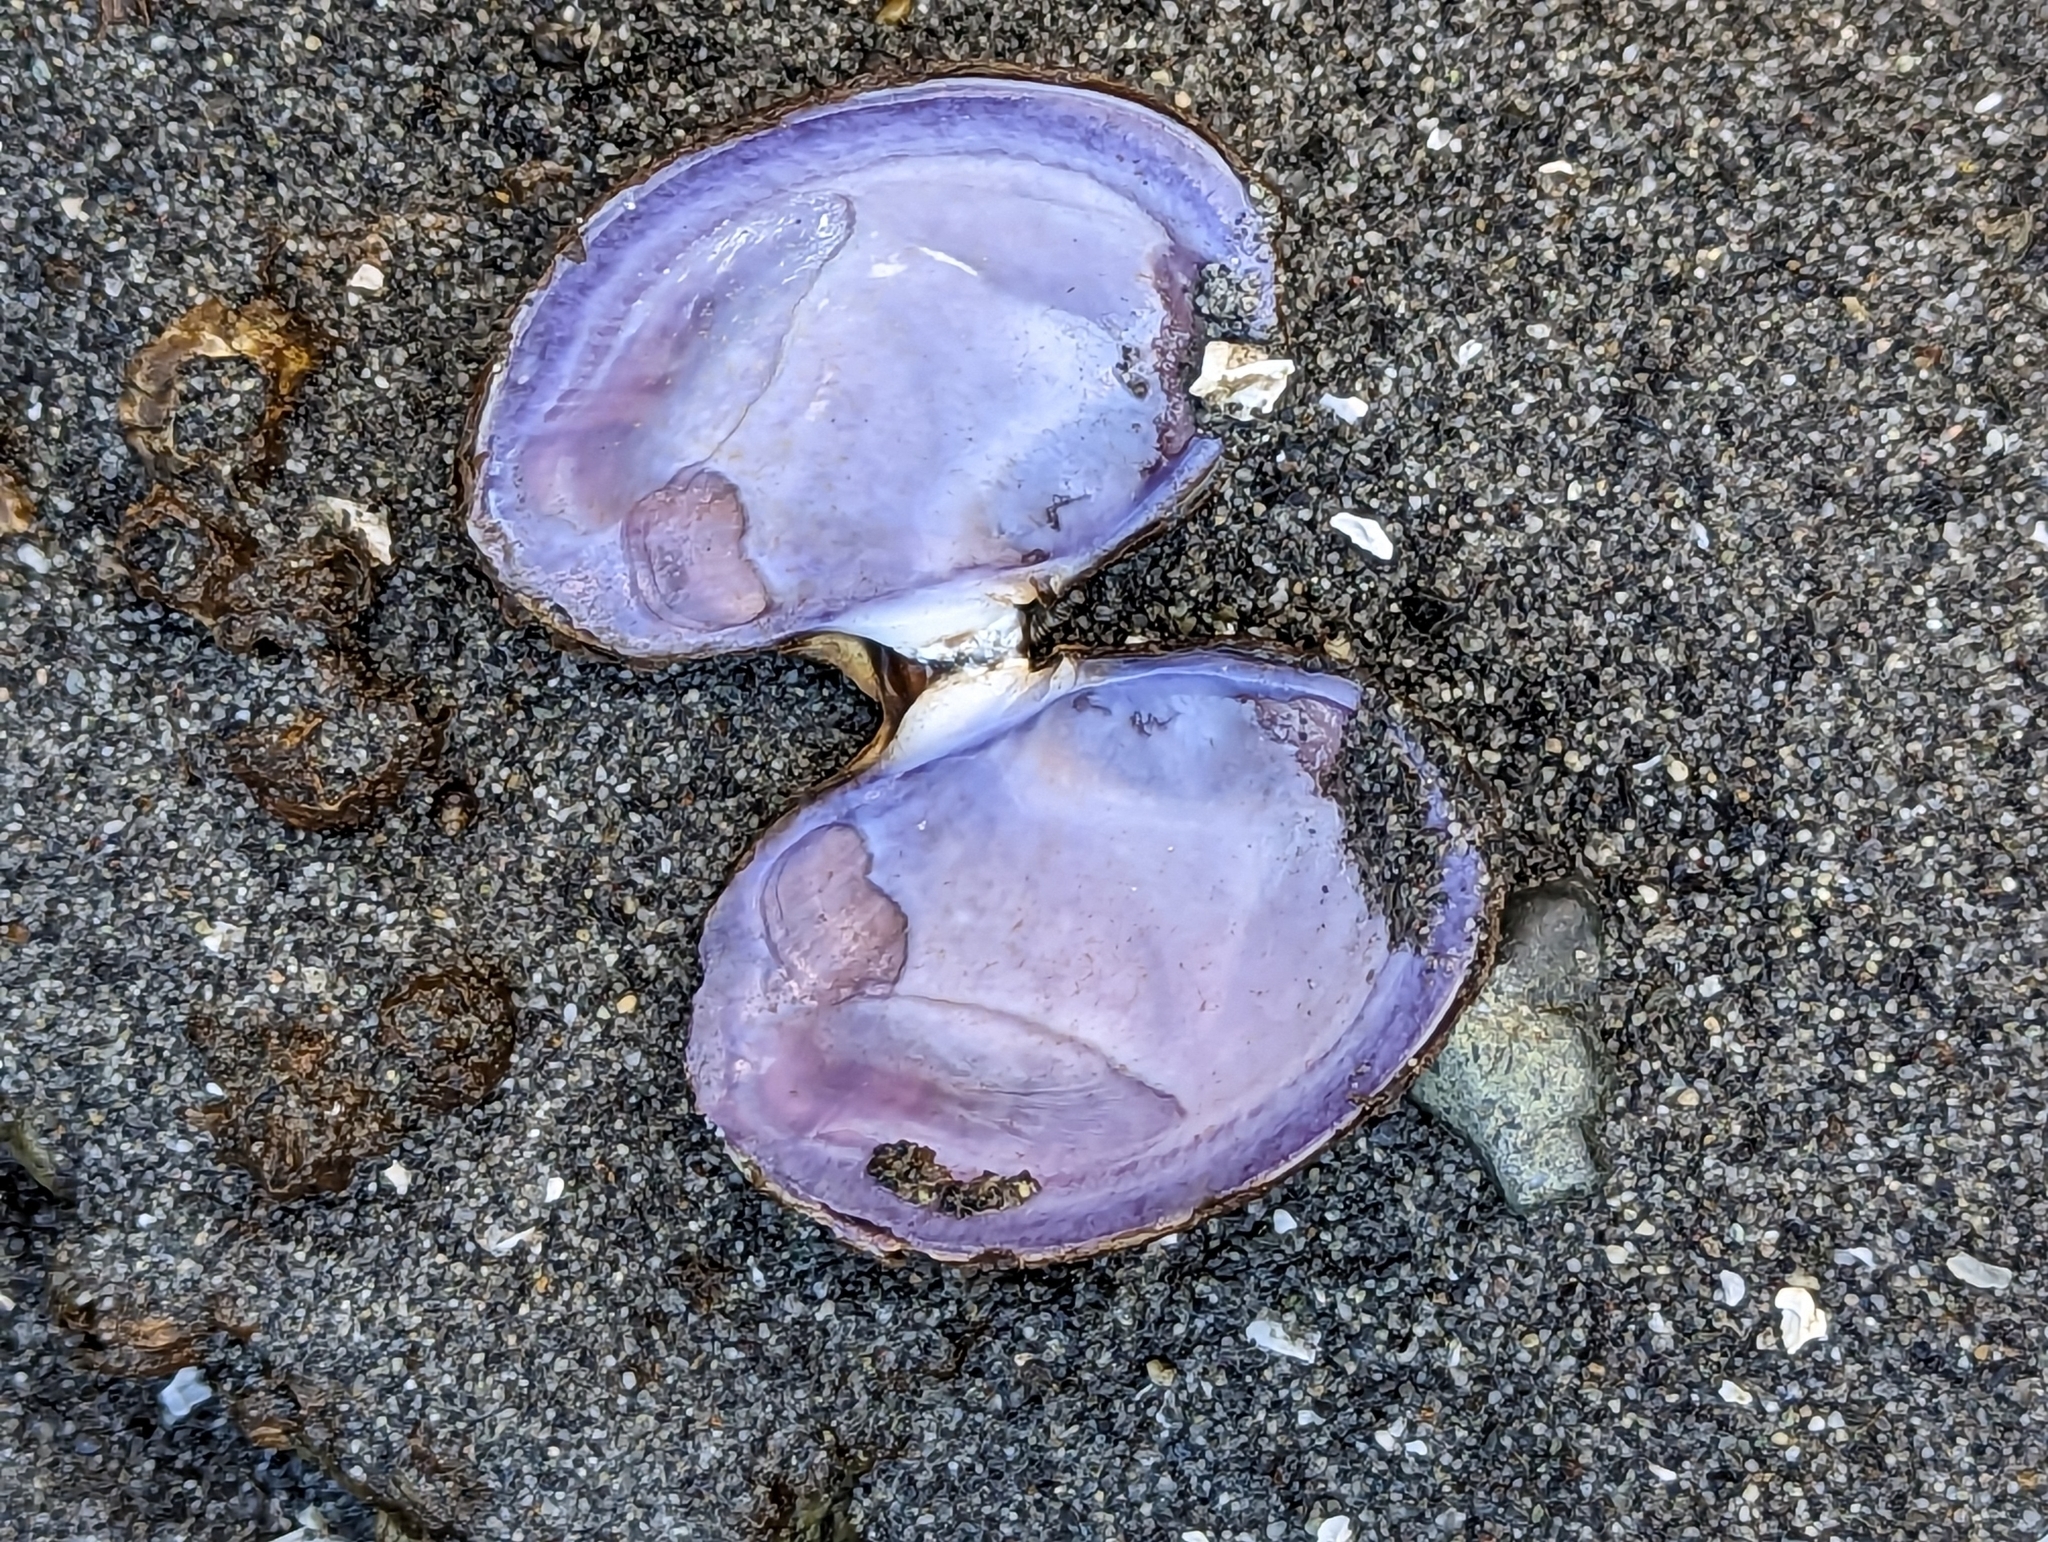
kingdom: Animalia
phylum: Mollusca
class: Bivalvia
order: Cardiida
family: Psammobiidae
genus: Nuttallia
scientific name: Nuttallia obscurata
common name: Purple mahogany-clam
